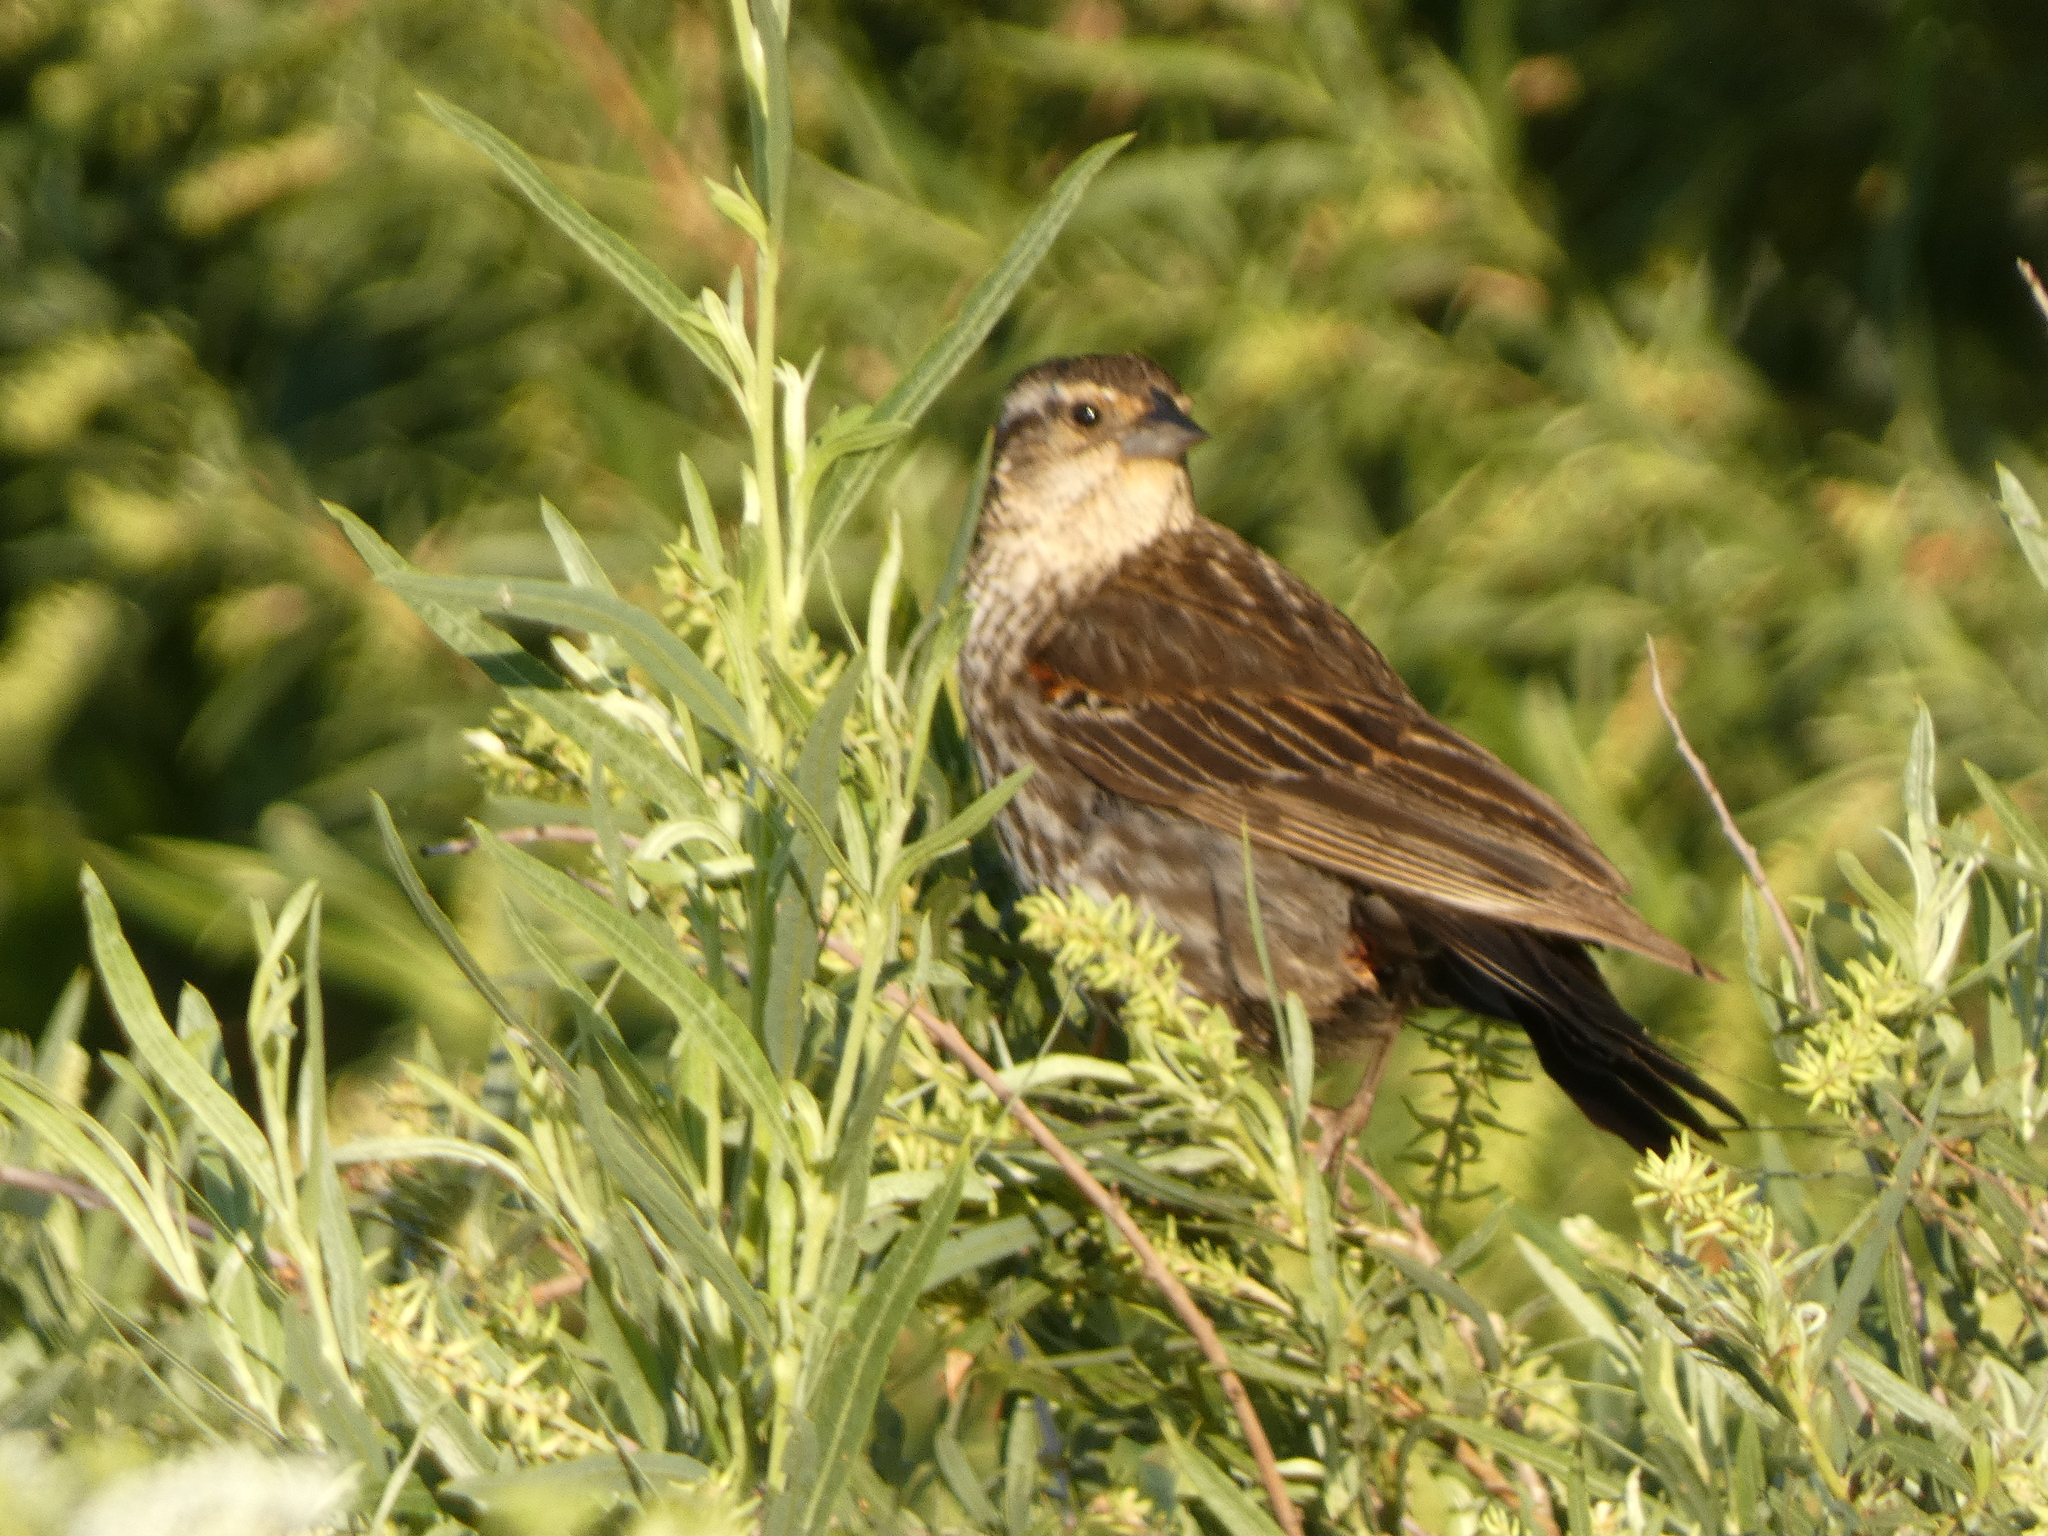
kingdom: Animalia
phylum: Chordata
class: Aves
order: Passeriformes
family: Icteridae
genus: Agelaius
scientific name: Agelaius phoeniceus
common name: Red-winged blackbird
